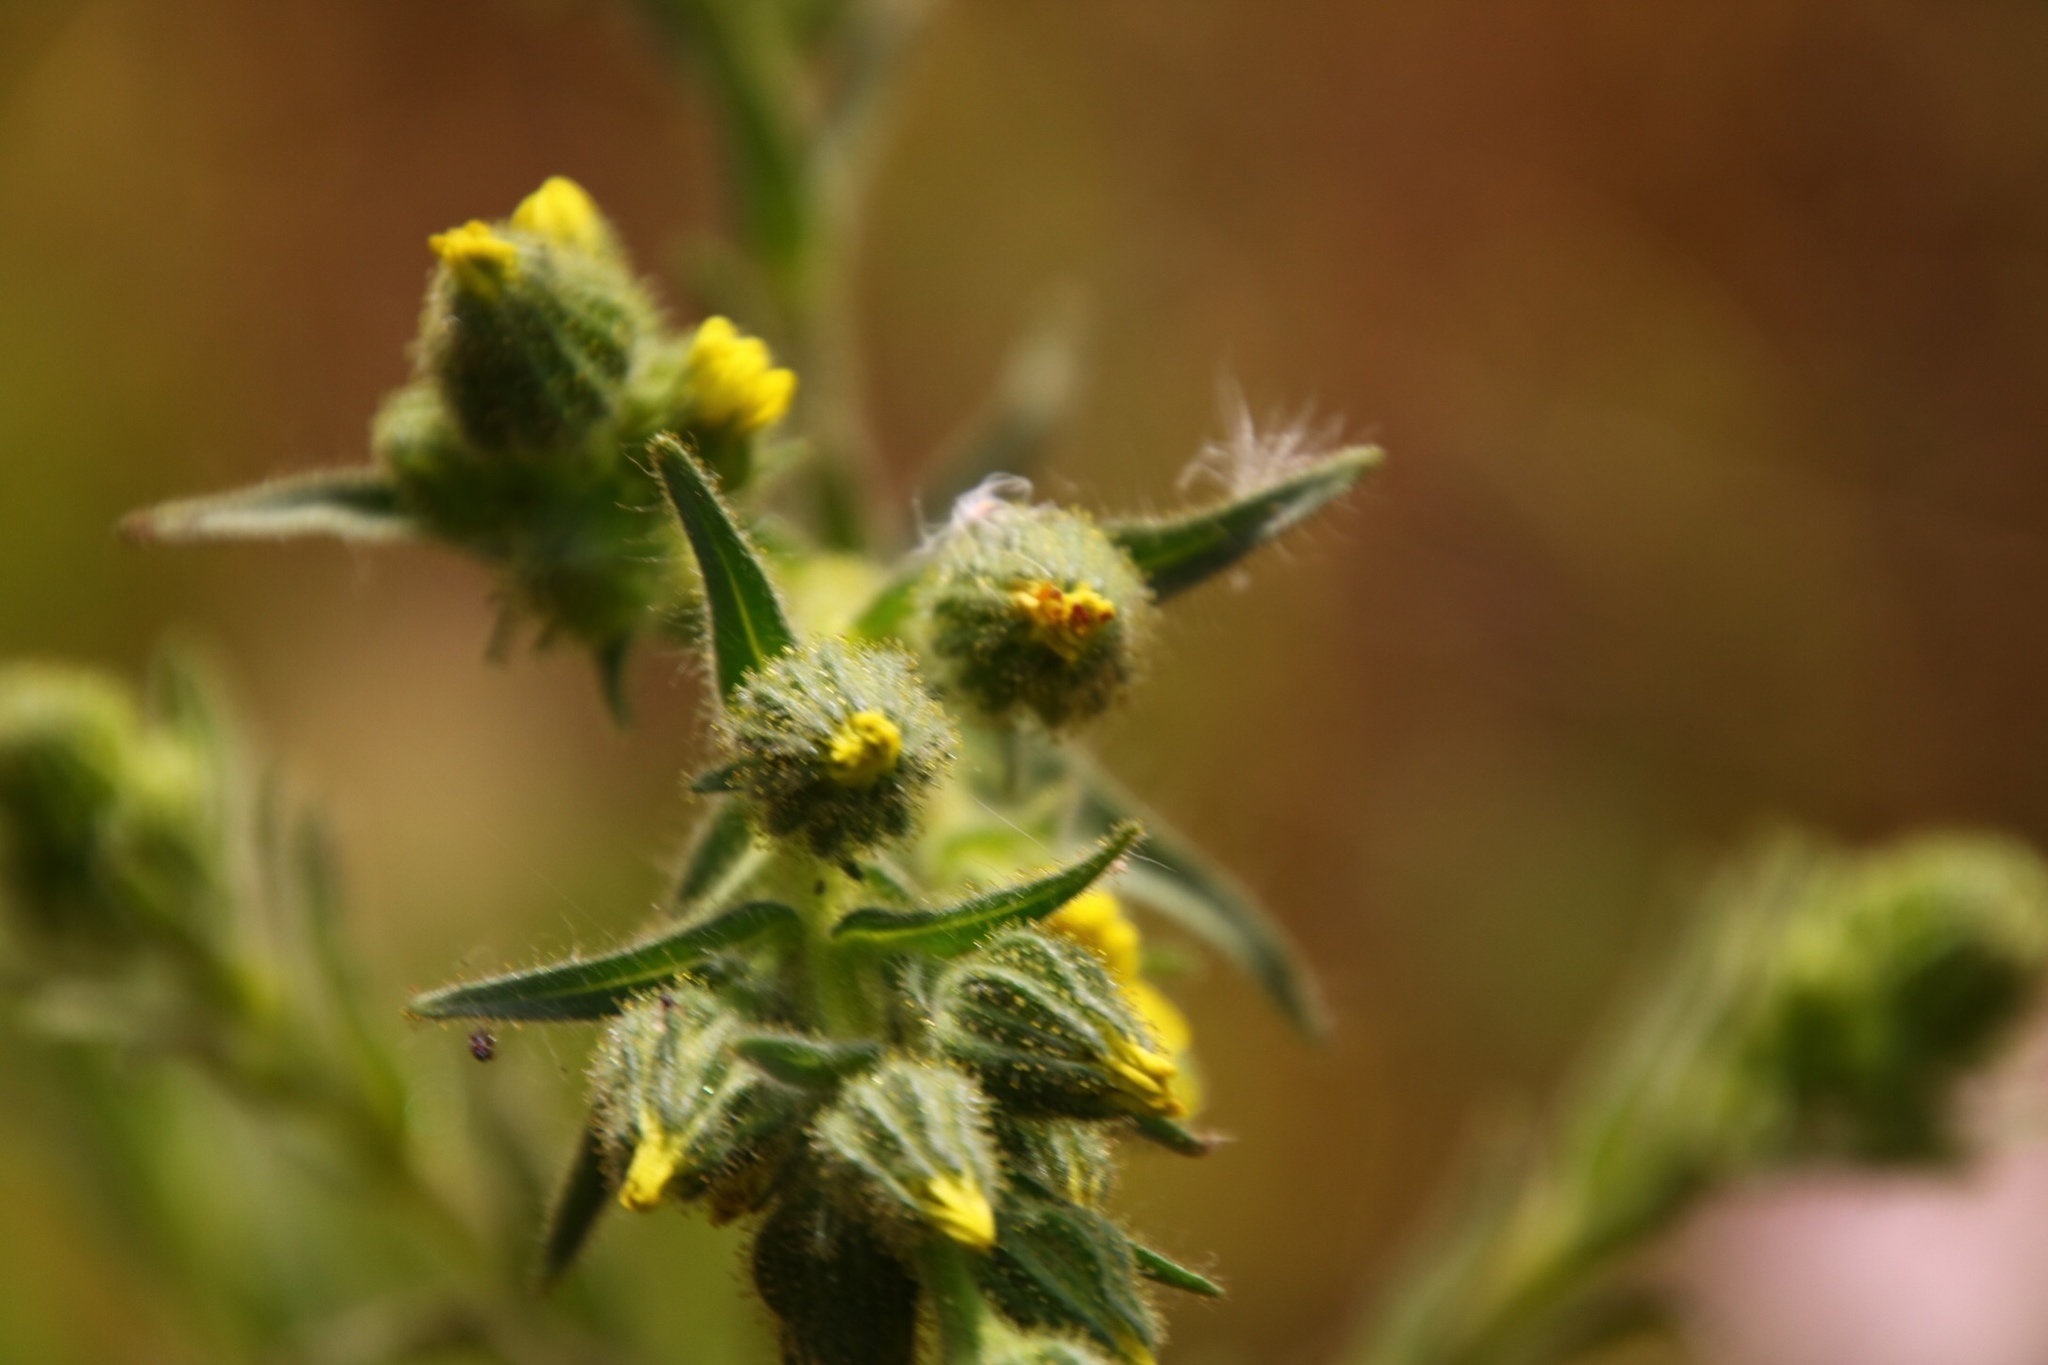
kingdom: Plantae
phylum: Tracheophyta
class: Magnoliopsida
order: Asterales
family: Asteraceae
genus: Madia
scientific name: Madia sativa
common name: Coast tarweed
